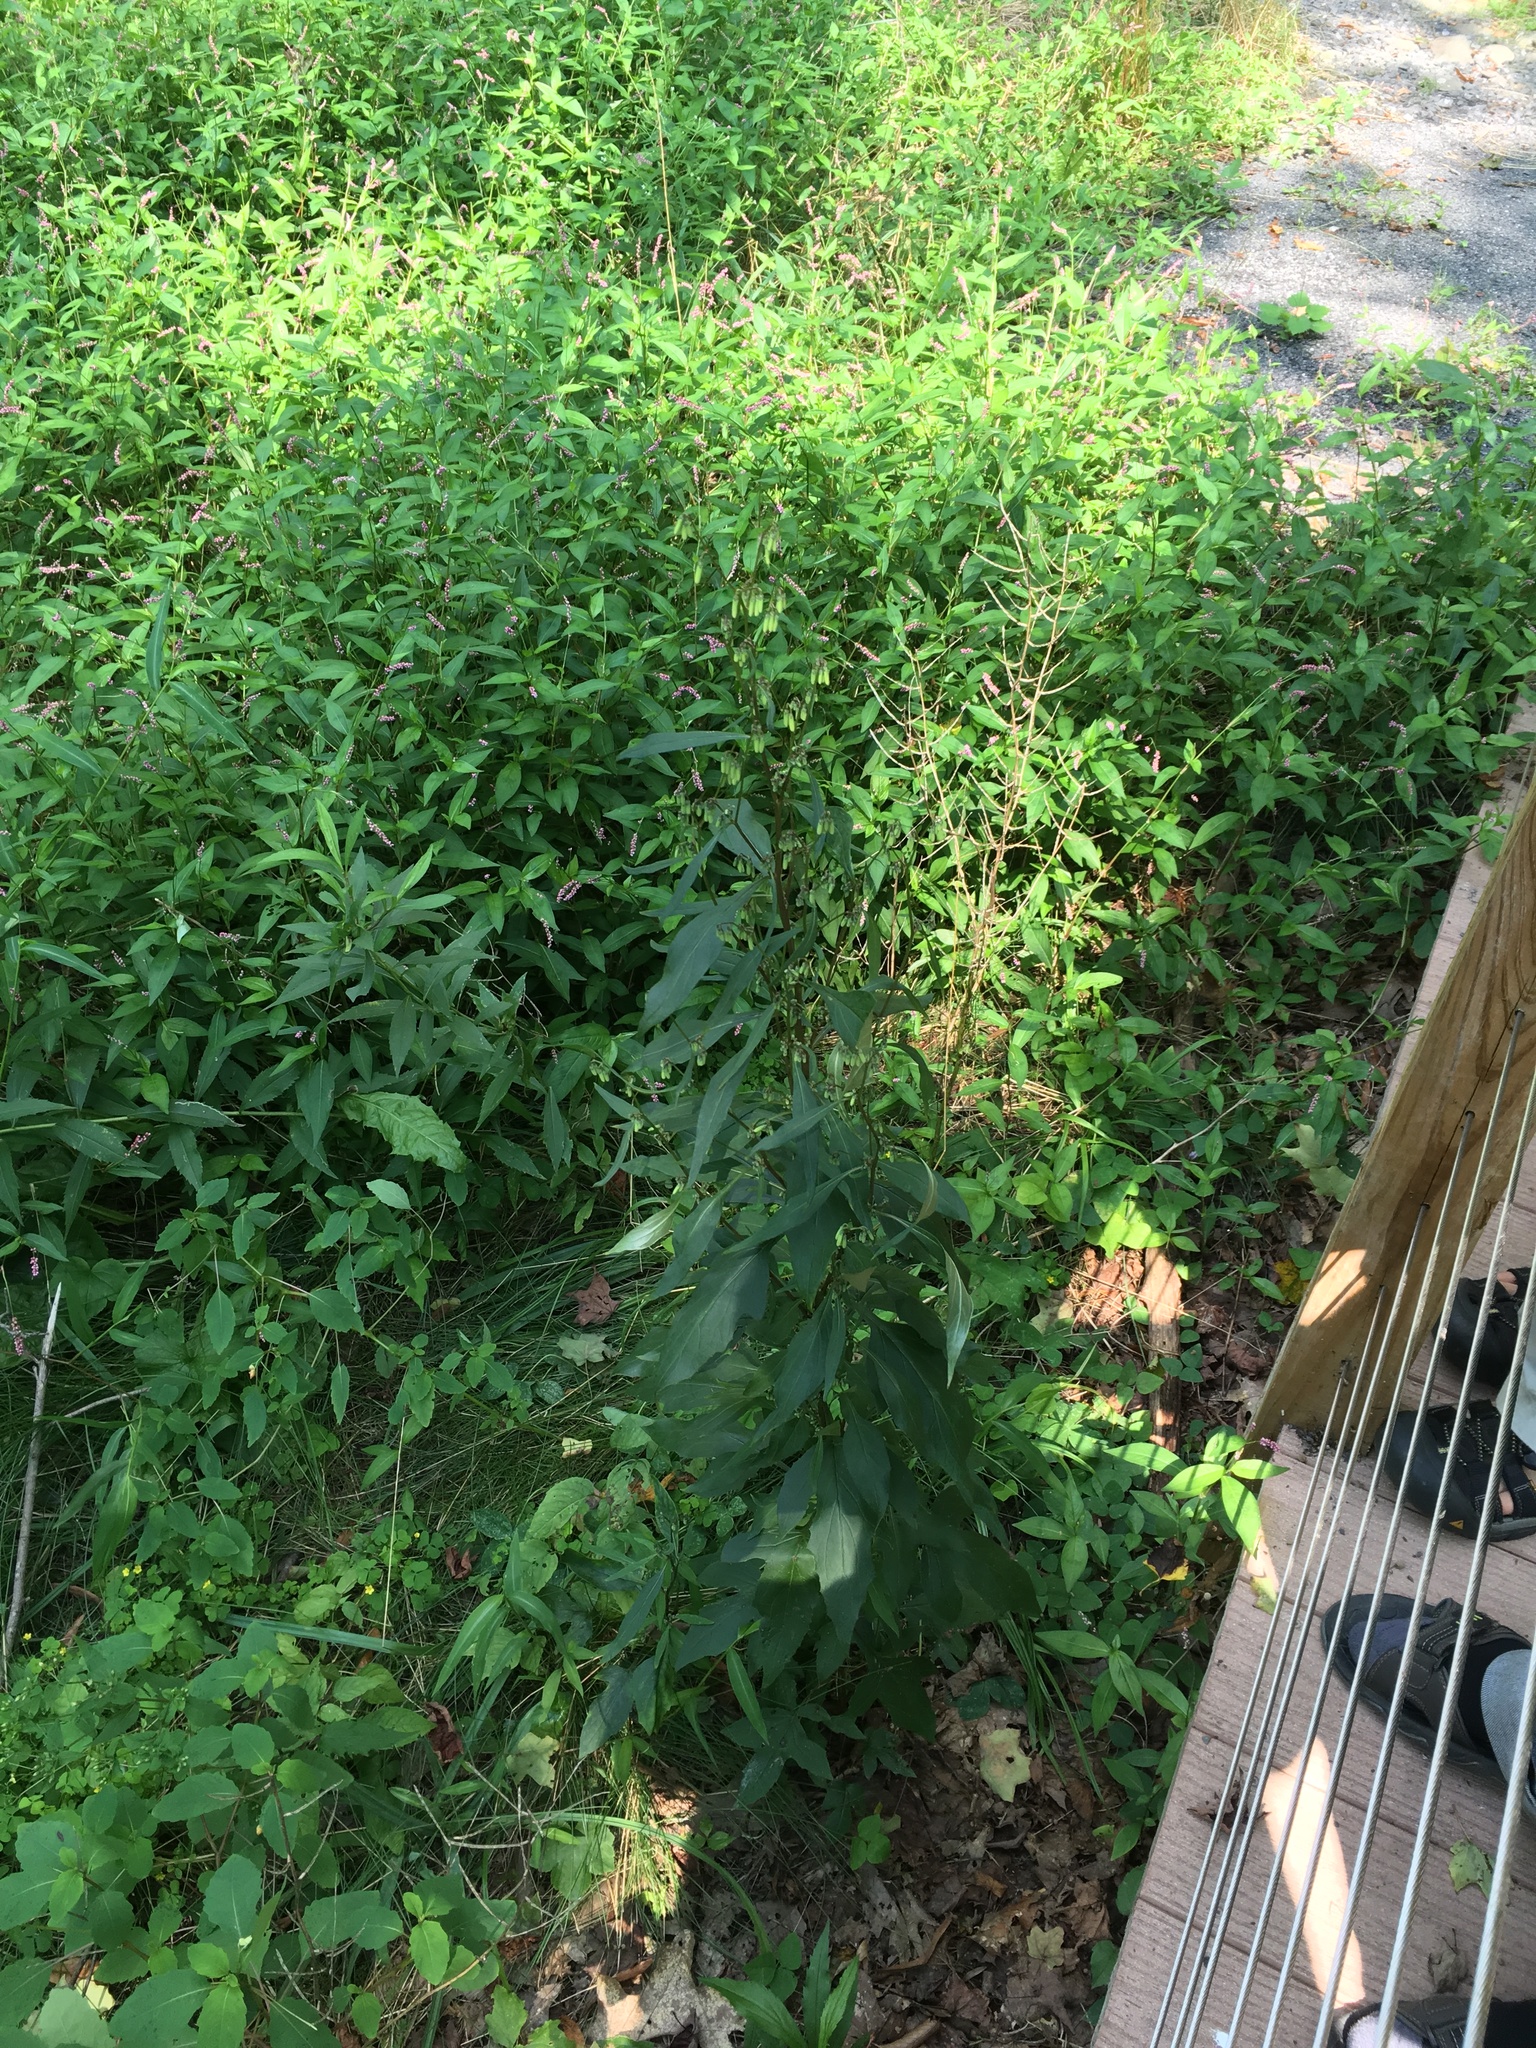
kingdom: Plantae
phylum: Tracheophyta
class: Magnoliopsida
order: Brassicales
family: Brassicaceae
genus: Alliaria
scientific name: Alliaria petiolata
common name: Garlic mustard
